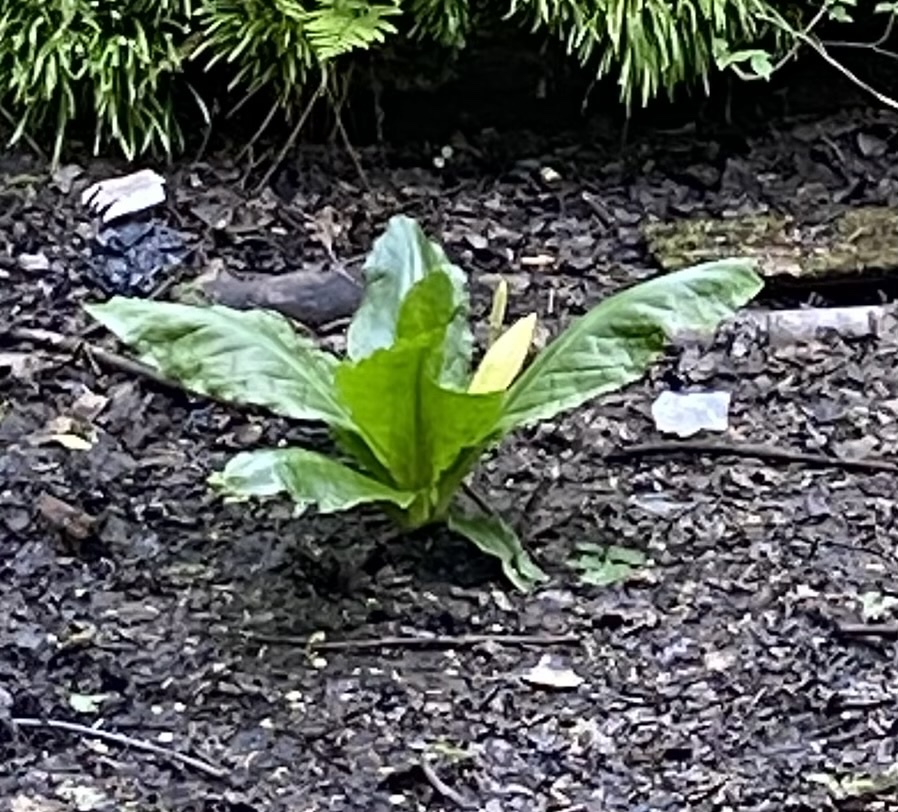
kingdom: Plantae
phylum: Tracheophyta
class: Liliopsida
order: Alismatales
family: Araceae
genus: Lysichiton
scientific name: Lysichiton americanus
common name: American skunk cabbage
